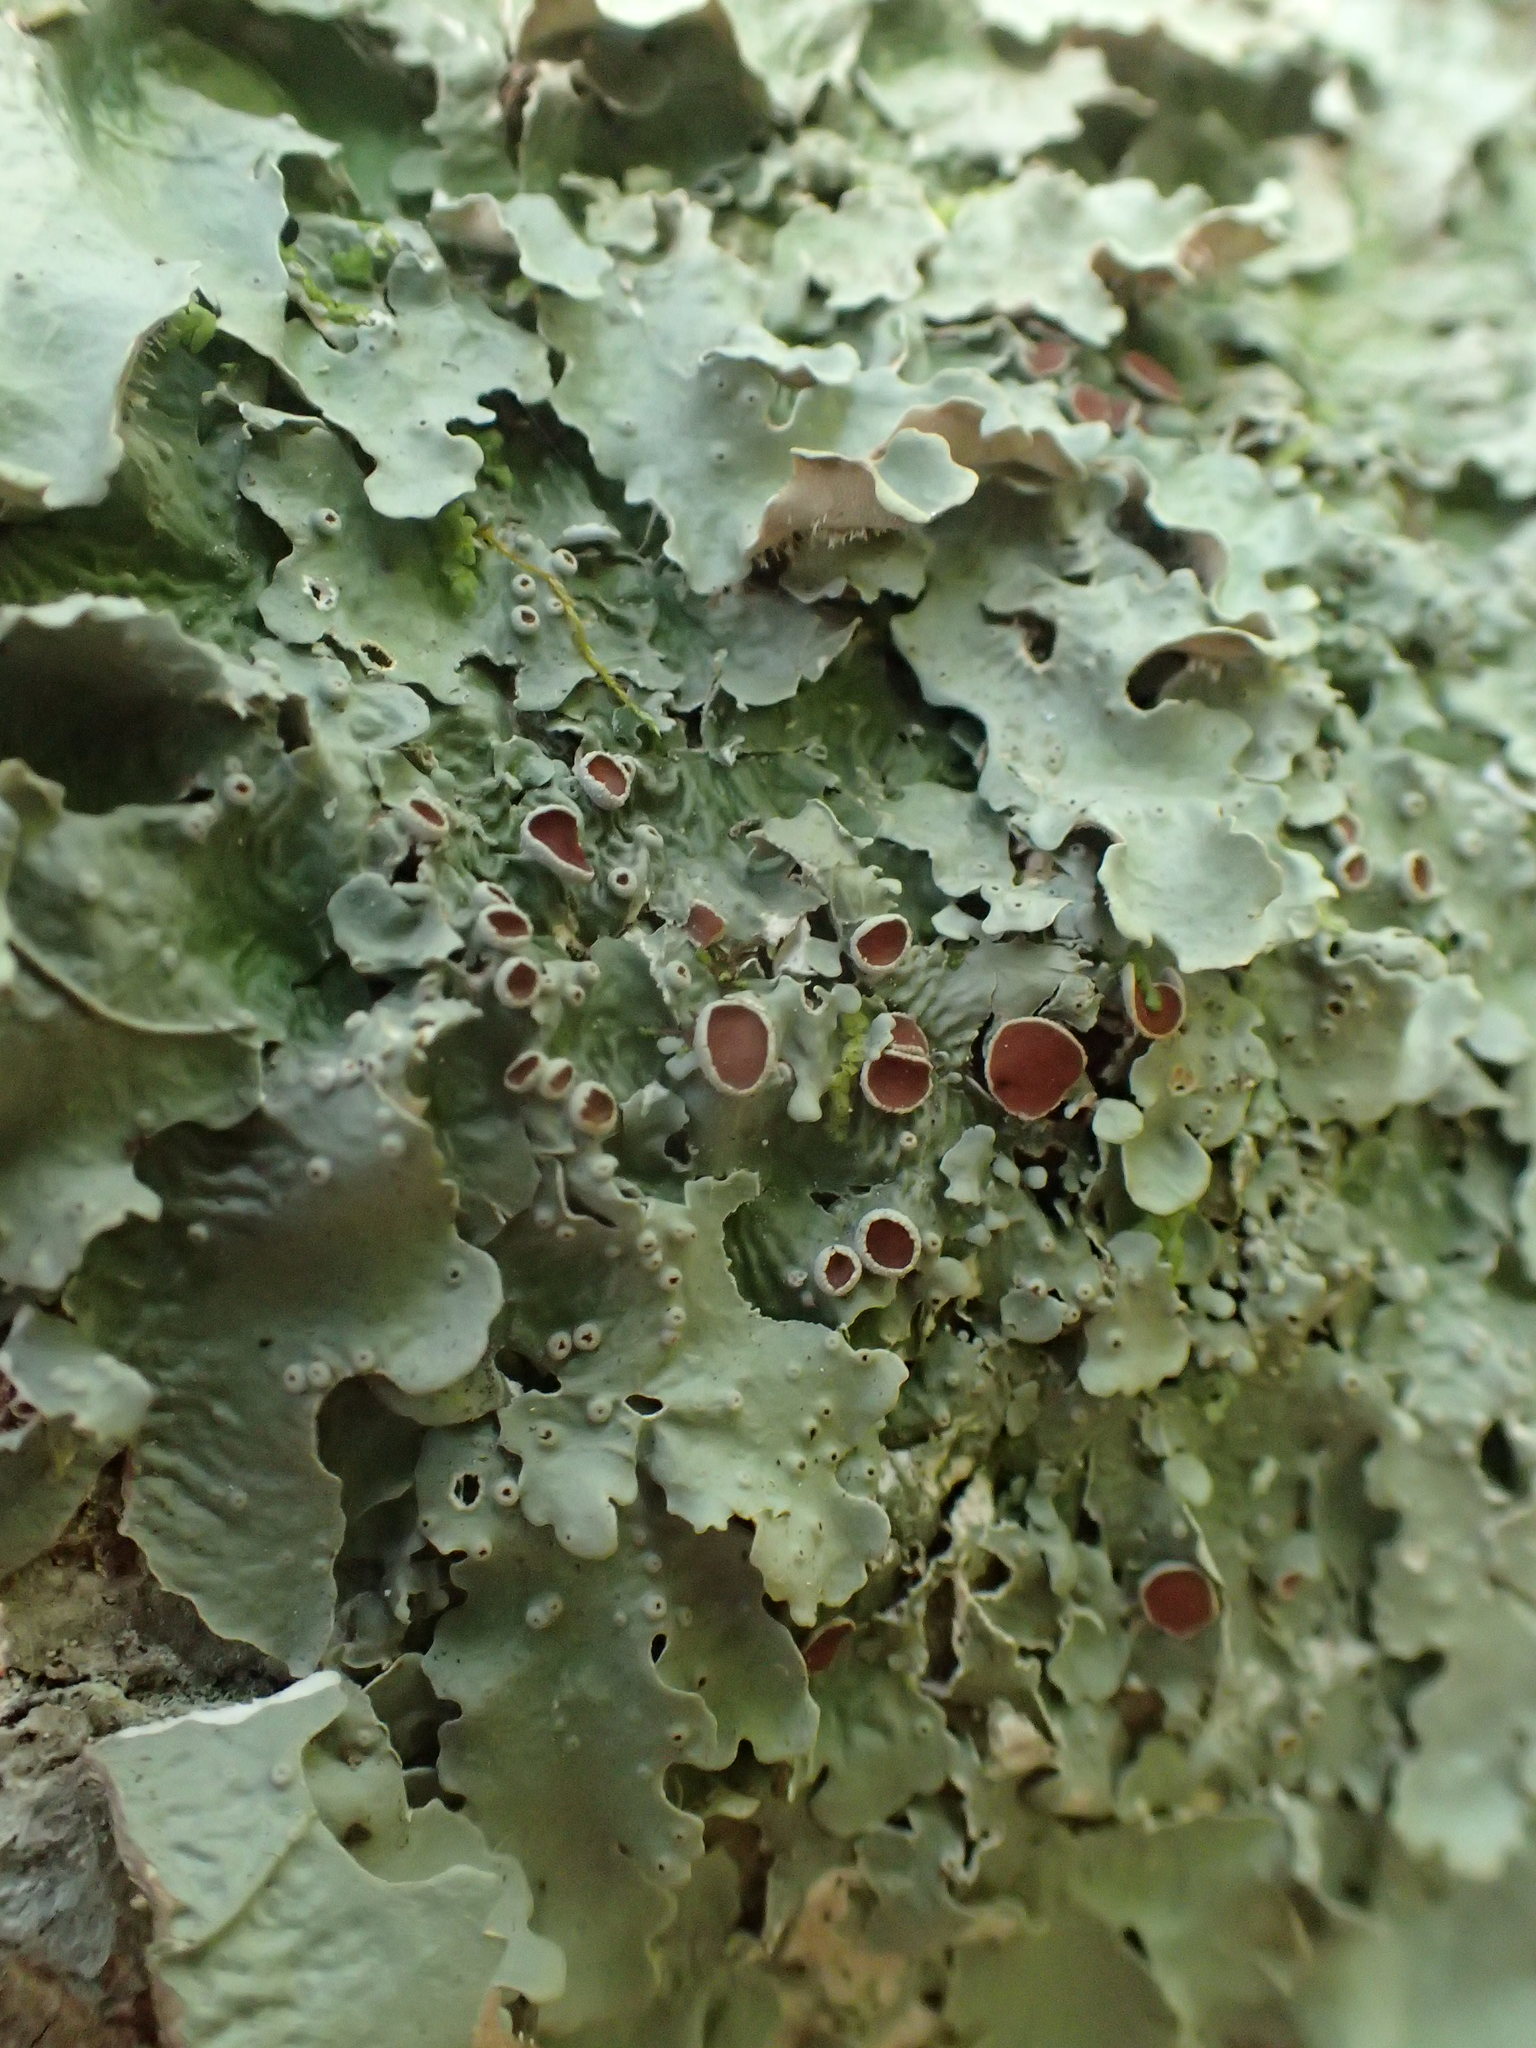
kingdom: Fungi
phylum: Ascomycota
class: Lecanoromycetes
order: Peltigerales
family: Lobariaceae
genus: Ricasolia
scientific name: Ricasolia quercizans
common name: Smooth lungwort
